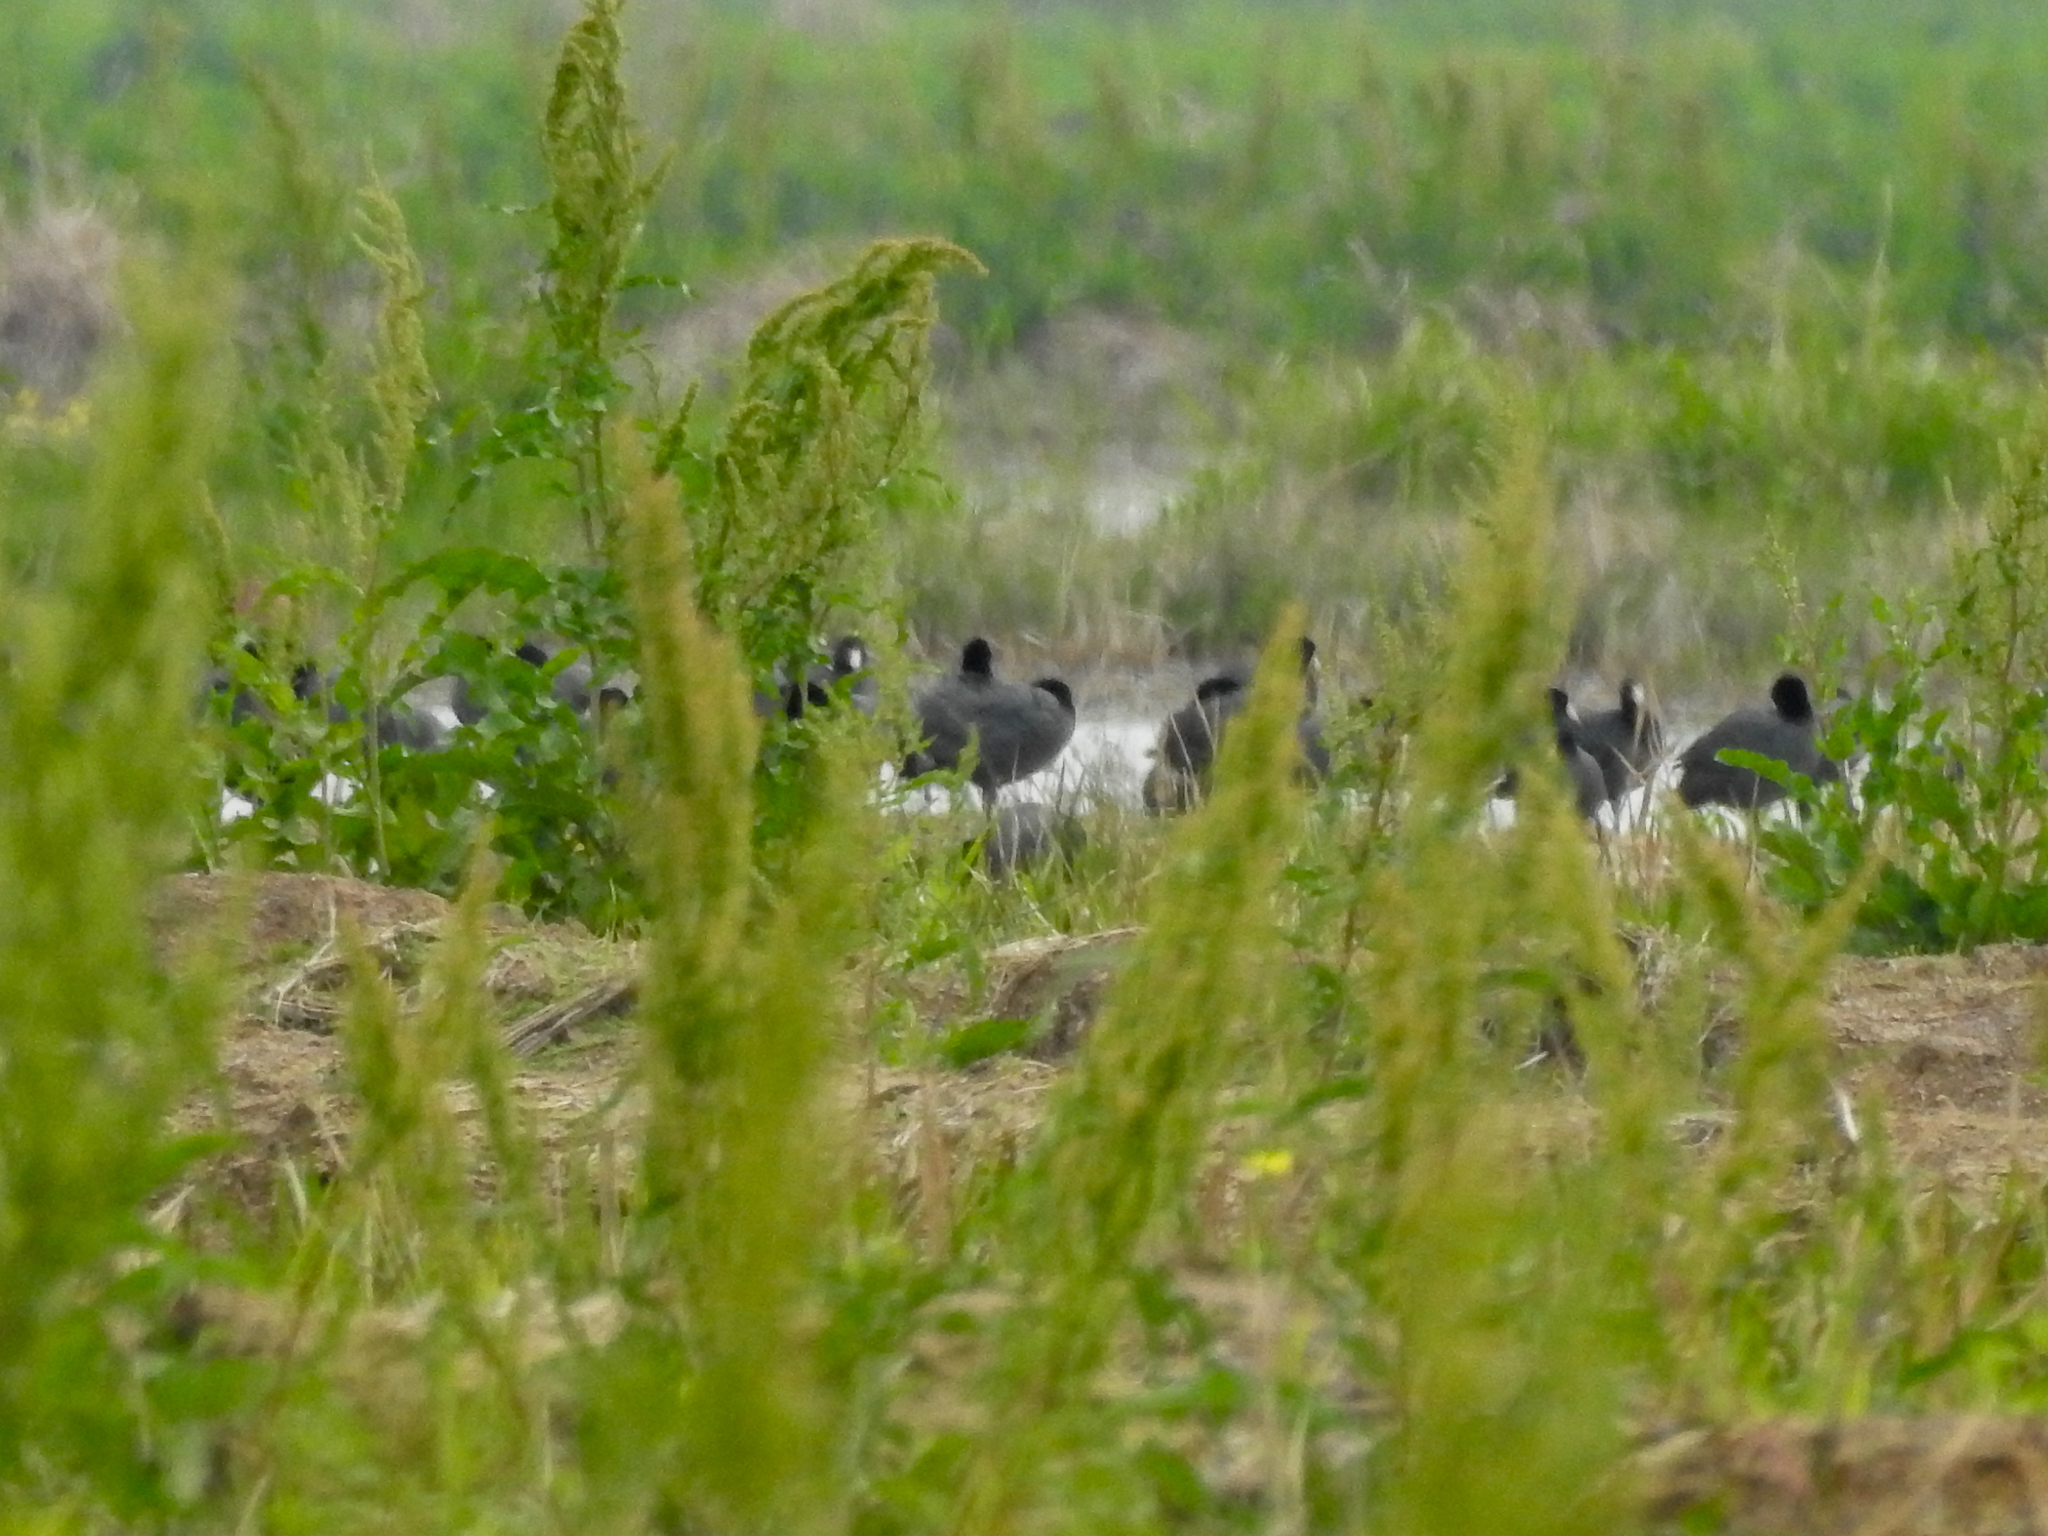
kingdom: Animalia
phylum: Chordata
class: Aves
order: Gruiformes
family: Rallidae
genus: Fulica
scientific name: Fulica americana
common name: American coot
